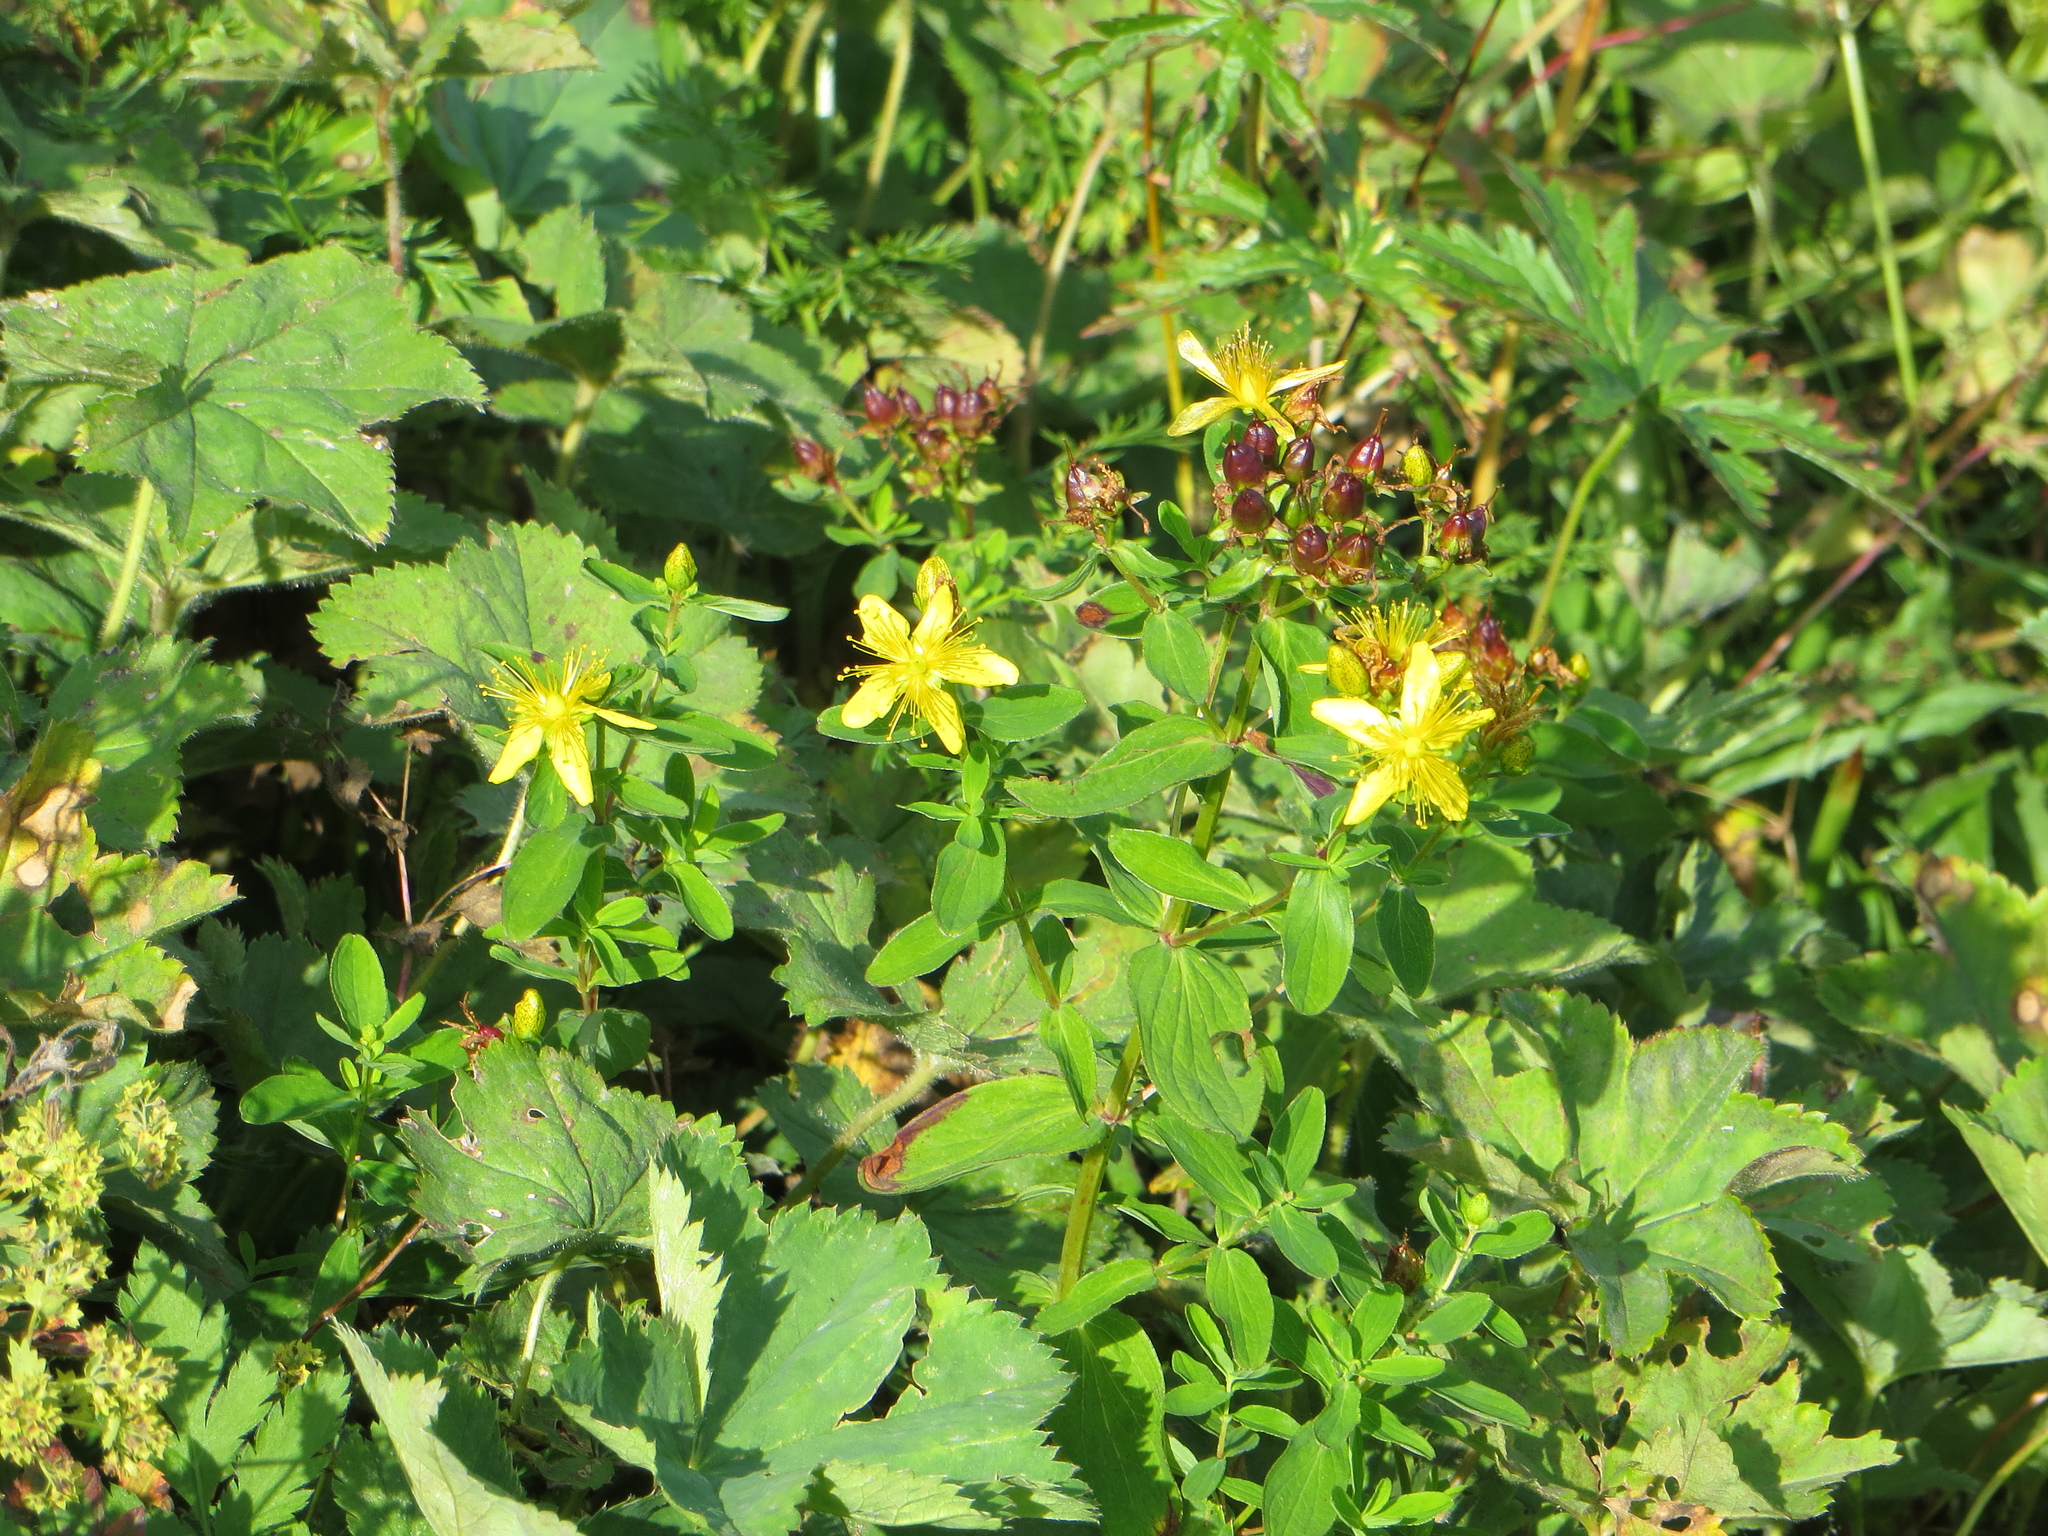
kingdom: Plantae
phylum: Tracheophyta
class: Magnoliopsida
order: Malpighiales
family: Hypericaceae
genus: Hypericum
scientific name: Hypericum maculatum
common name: Imperforate st. john's-wort
